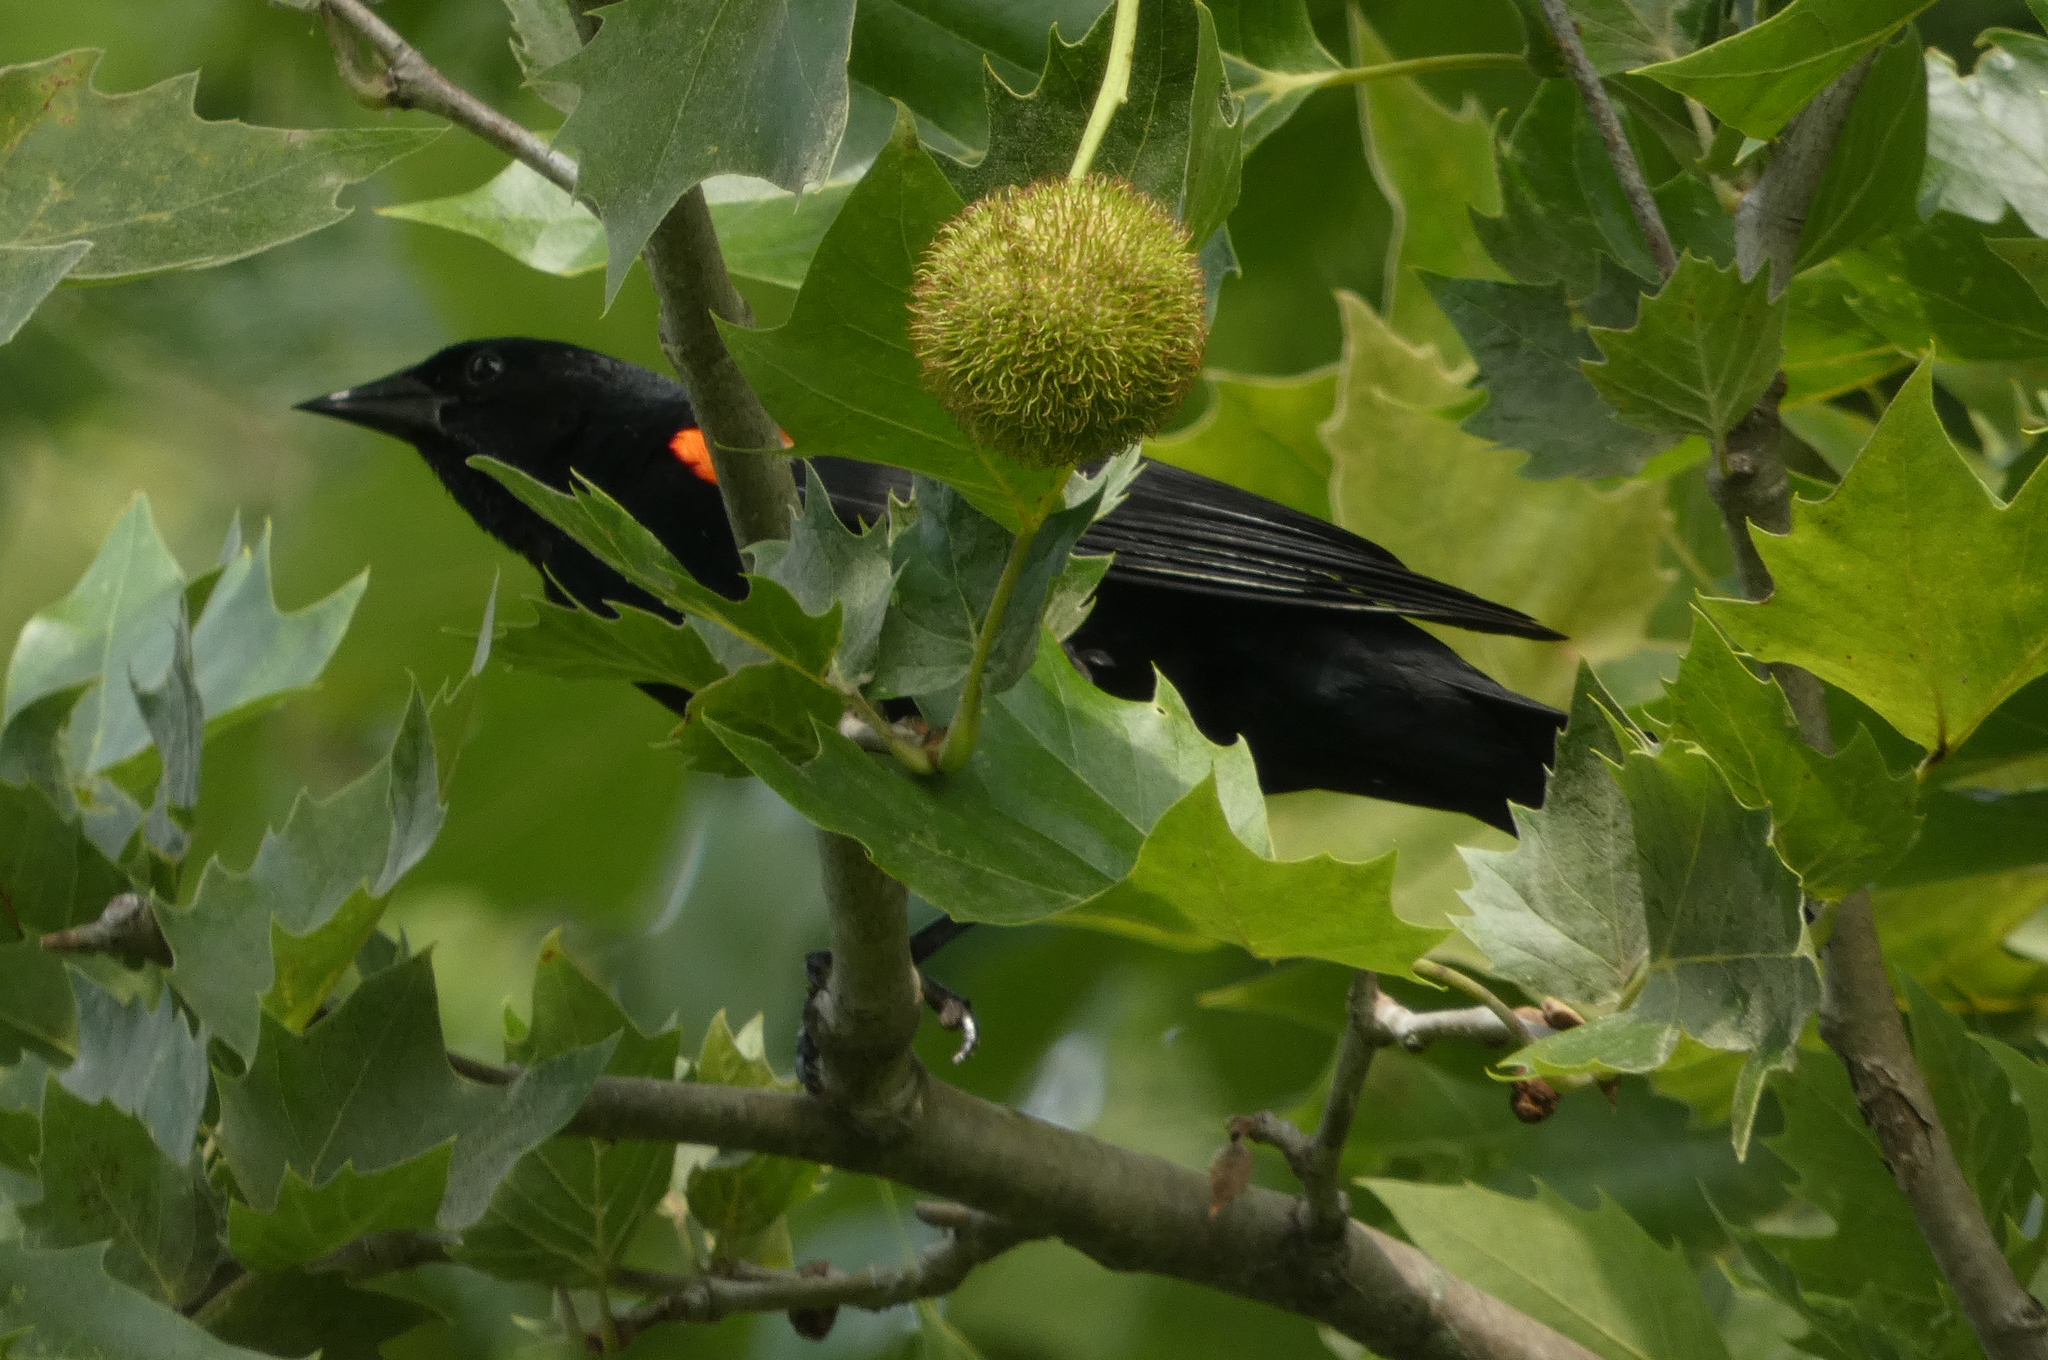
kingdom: Animalia
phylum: Chordata
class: Aves
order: Passeriformes
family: Icteridae
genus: Agelaius
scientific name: Agelaius phoeniceus
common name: Red-winged blackbird
